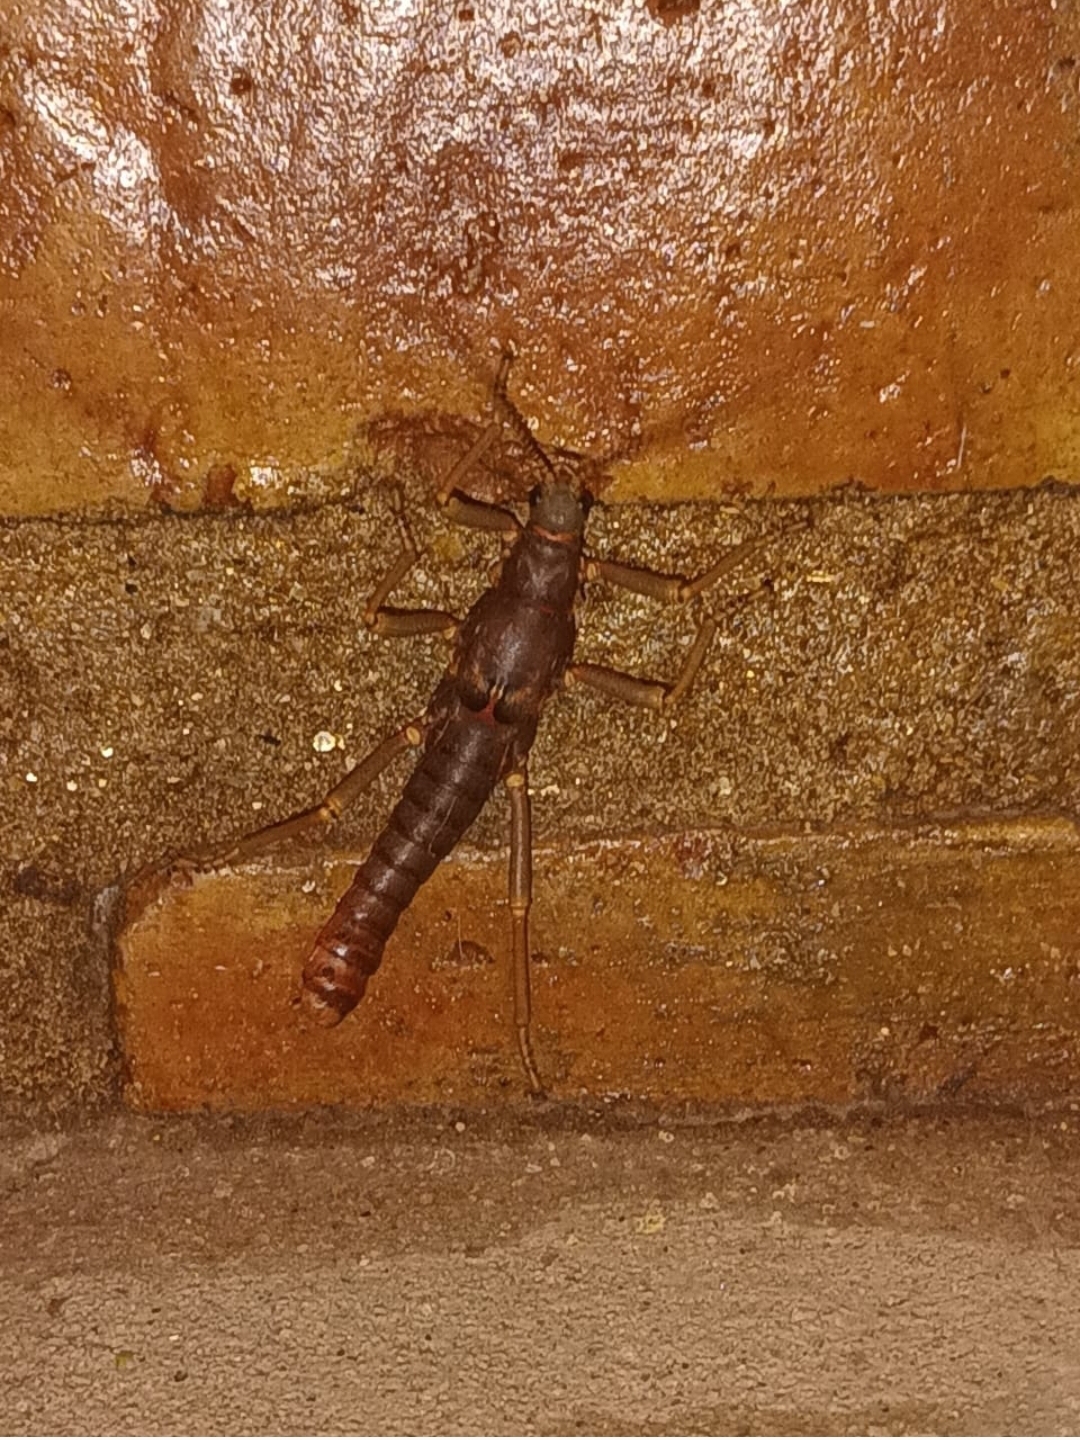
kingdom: Animalia
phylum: Arthropoda
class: Insecta
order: Phasmida
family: Agathemeridae
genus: Agathemera
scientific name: Agathemera luteola
